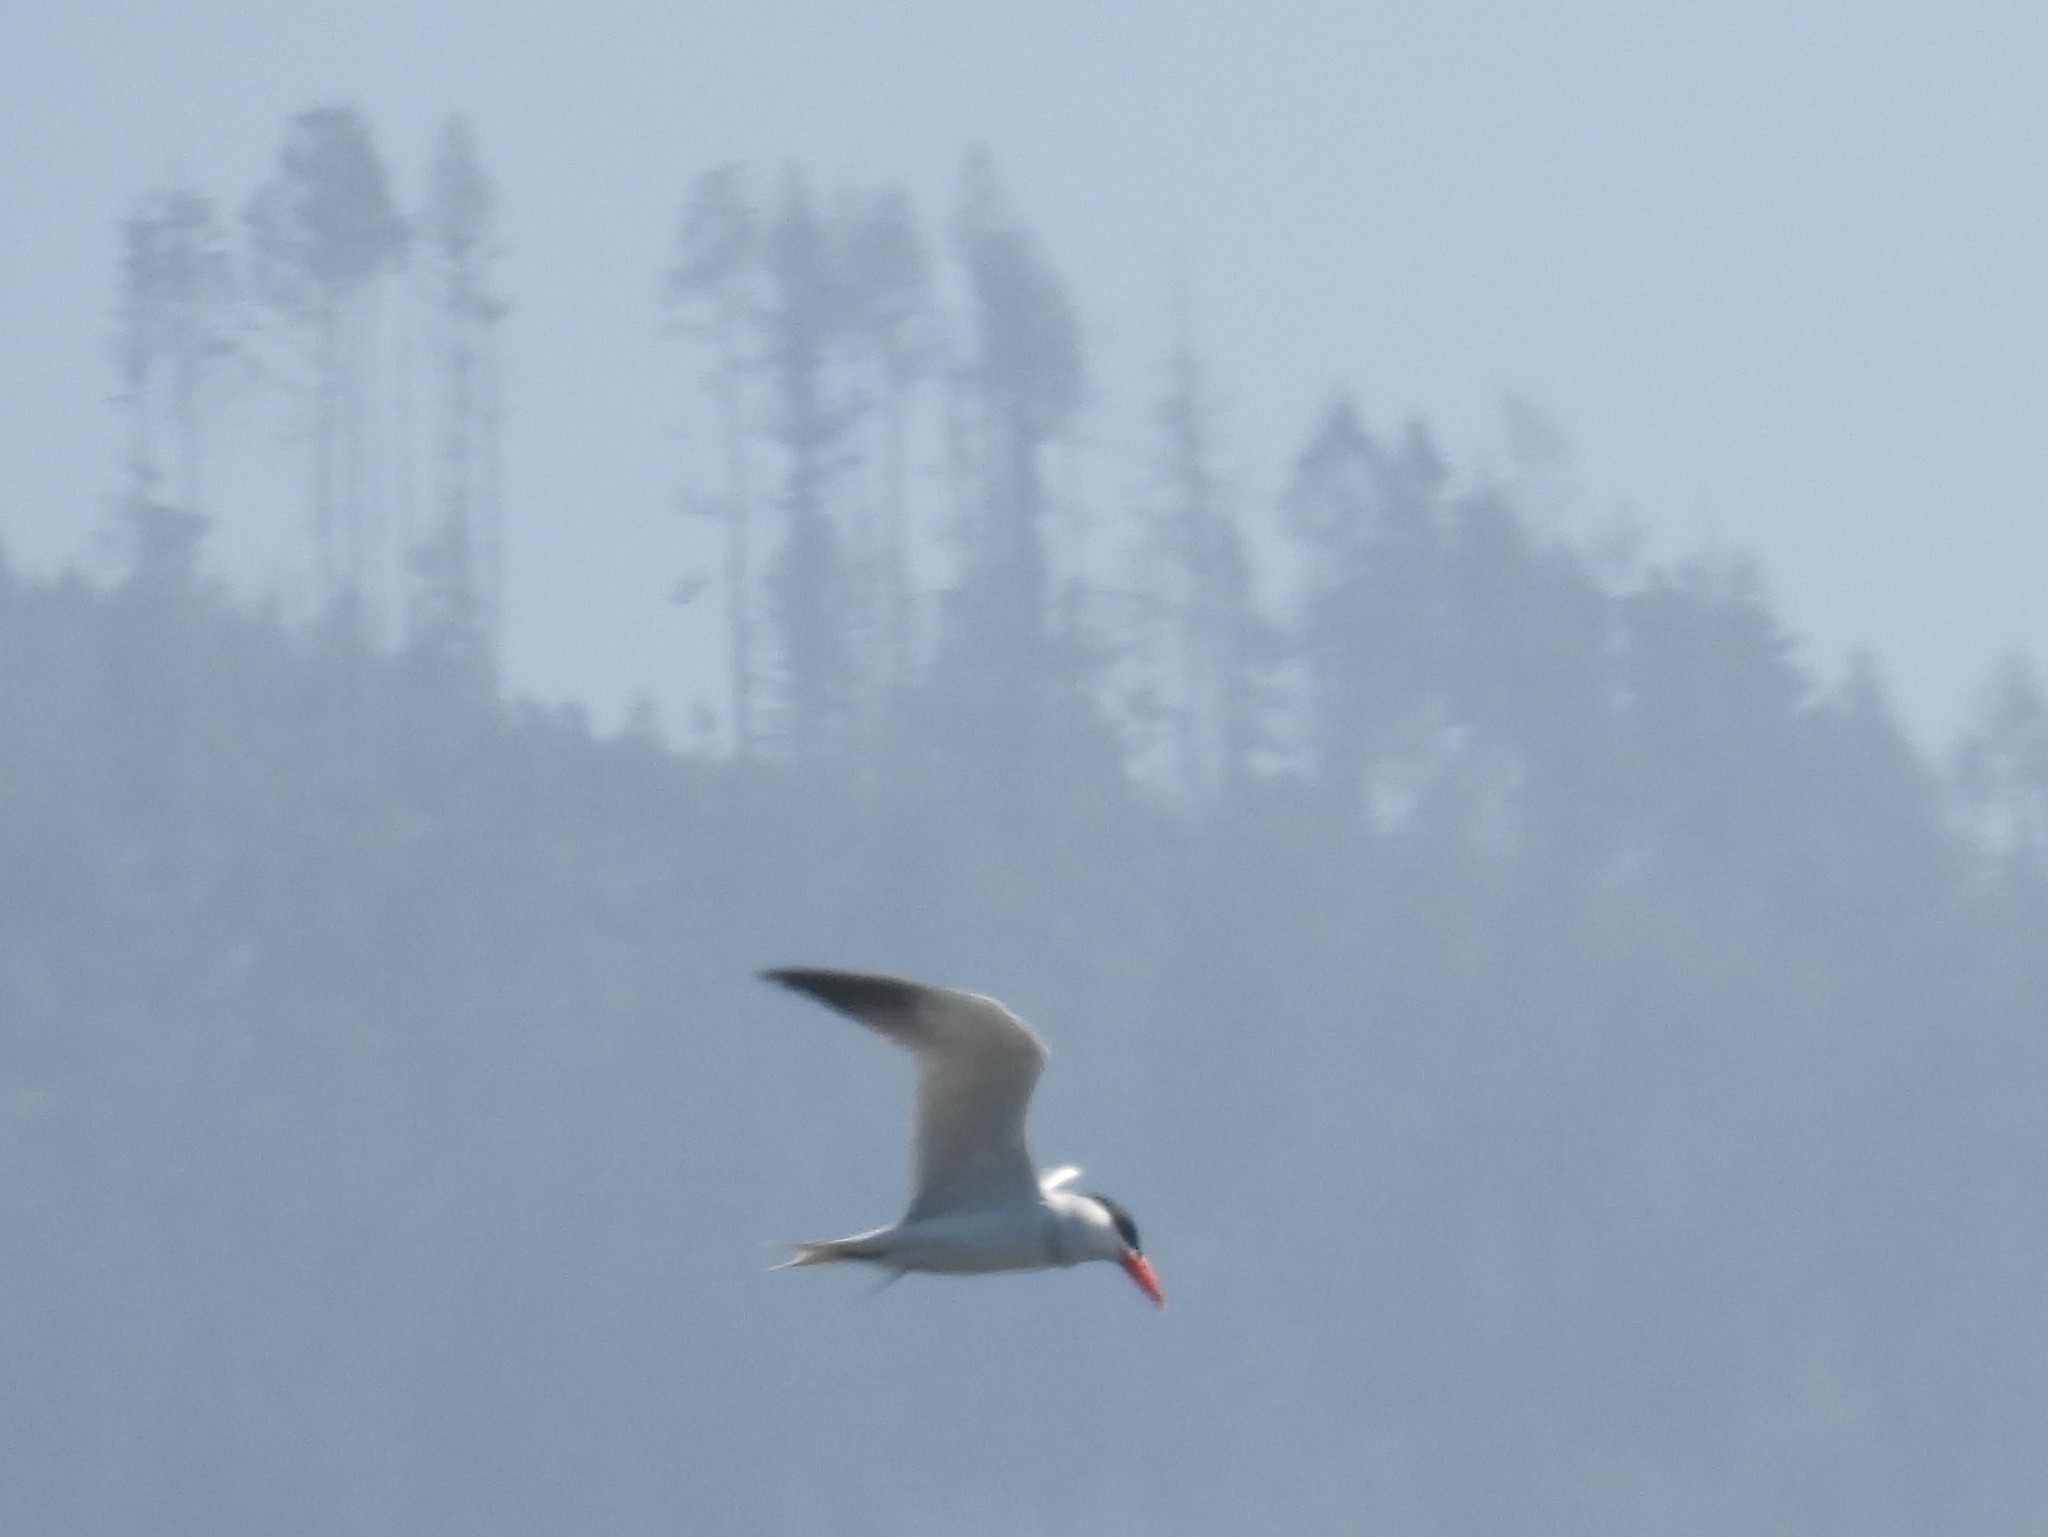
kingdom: Animalia
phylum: Chordata
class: Aves
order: Charadriiformes
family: Laridae
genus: Hydroprogne
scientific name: Hydroprogne caspia
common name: Caspian tern
